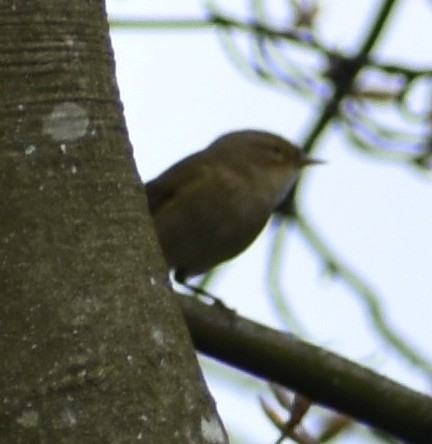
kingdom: Animalia
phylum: Chordata
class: Aves
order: Passeriformes
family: Phylloscopidae
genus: Phylloscopus
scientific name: Phylloscopus collybita
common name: Common chiffchaff
